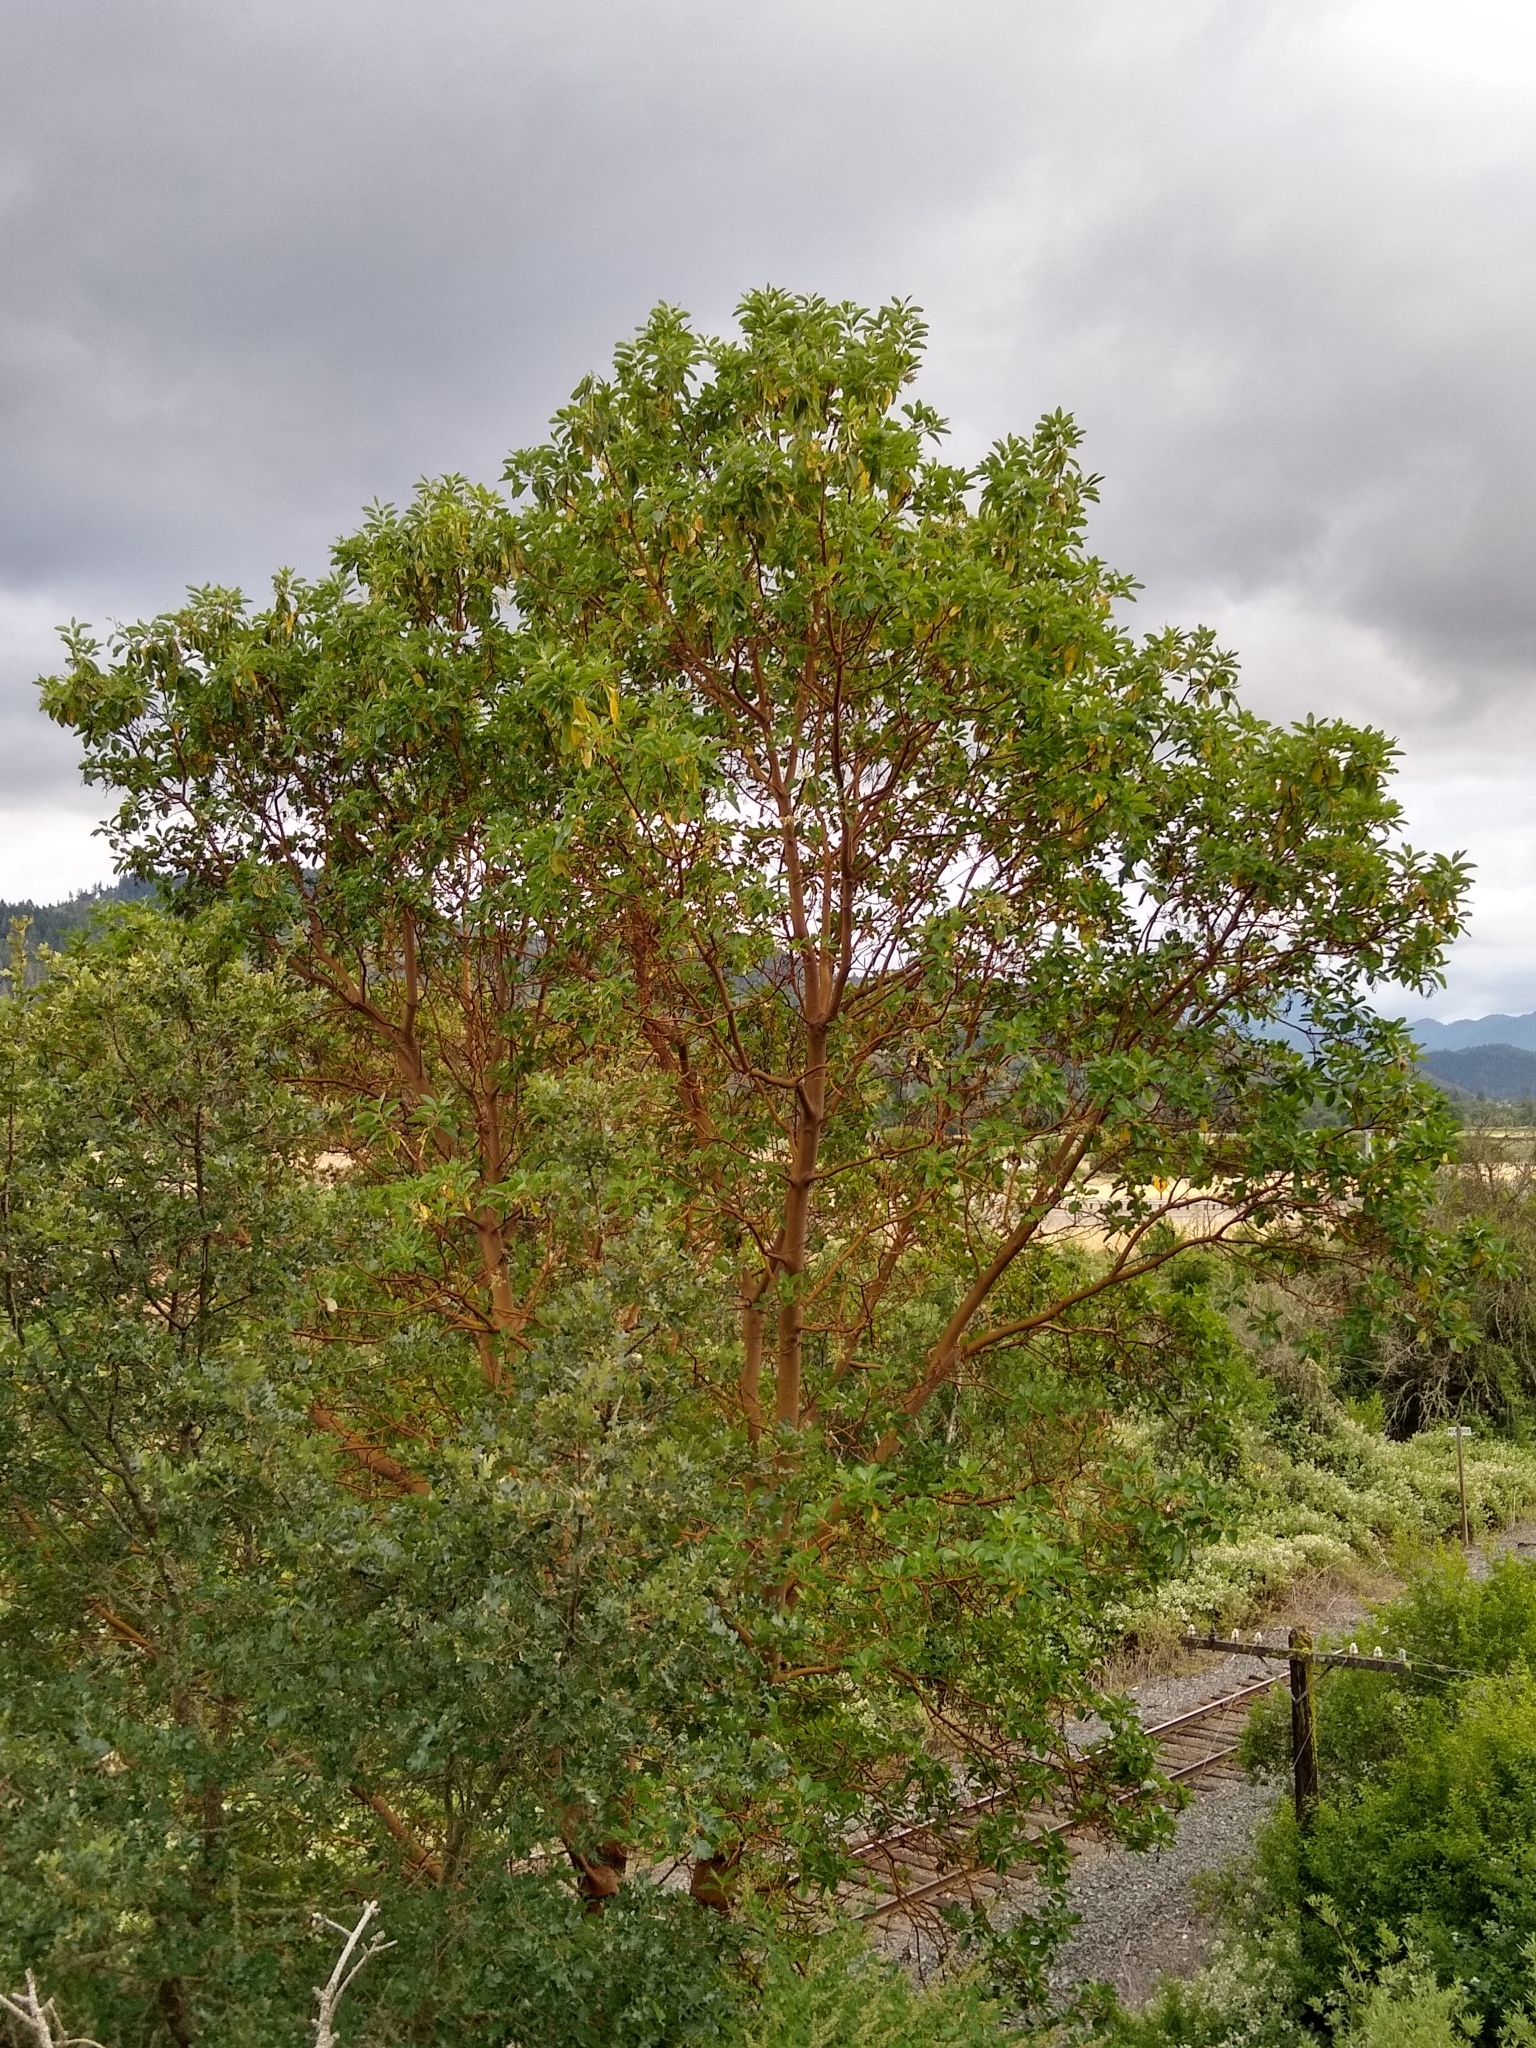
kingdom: Plantae
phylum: Tracheophyta
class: Magnoliopsida
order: Ericales
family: Ericaceae
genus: Arbutus
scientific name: Arbutus menziesii
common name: Pacific madrone
